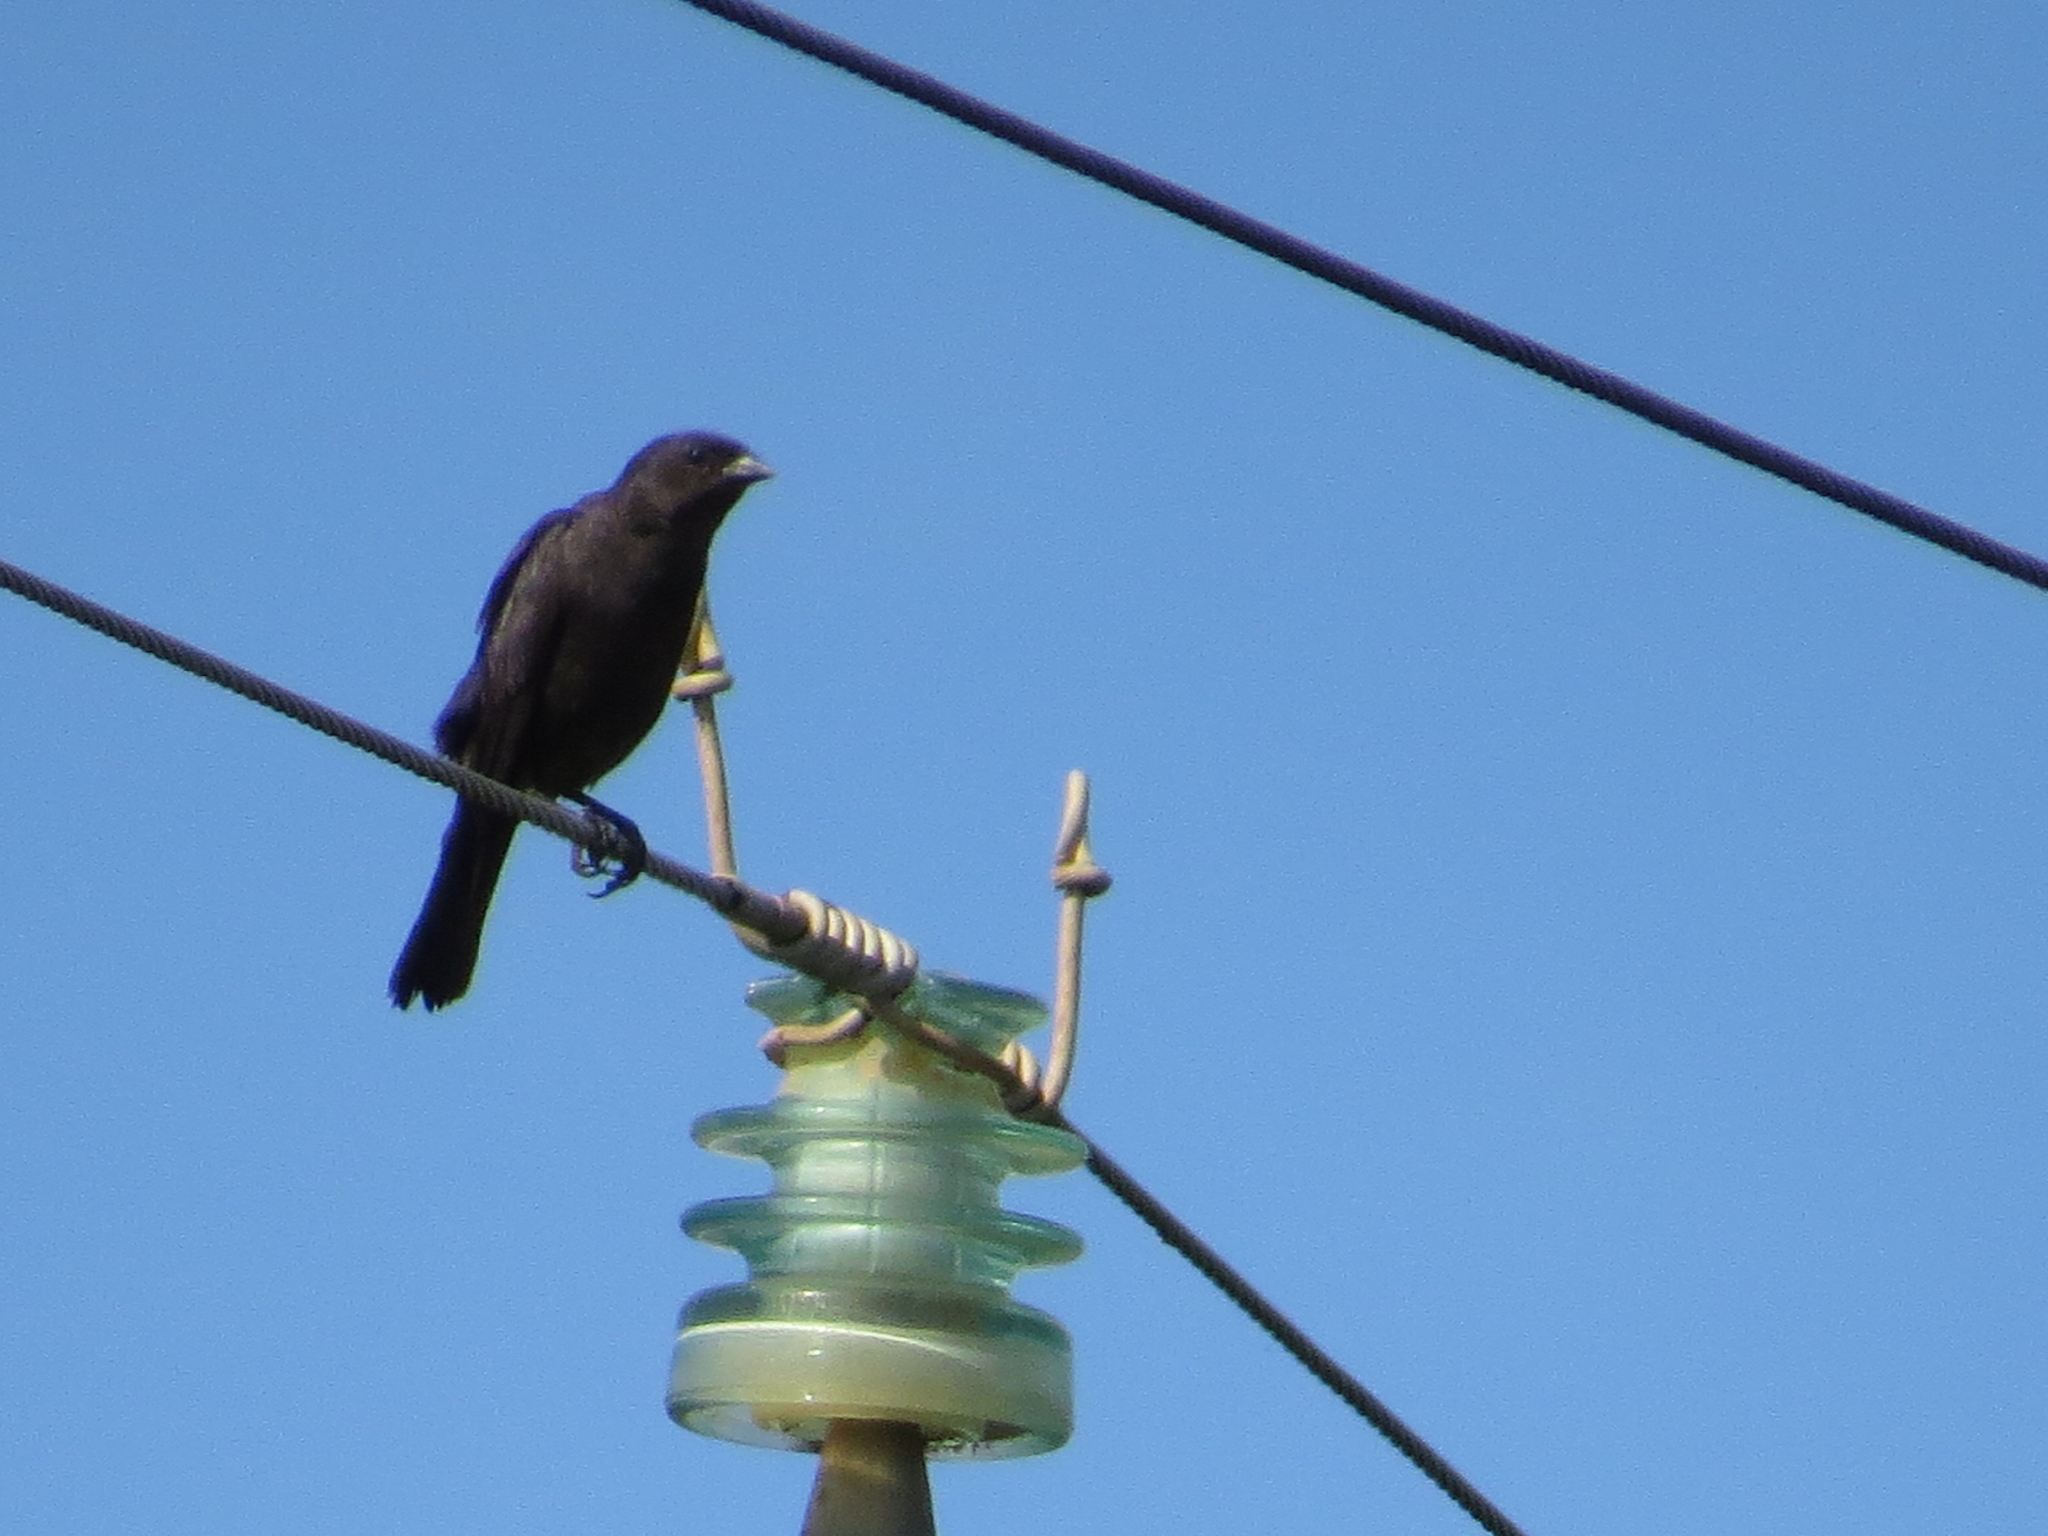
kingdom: Animalia
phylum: Chordata
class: Aves
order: Passeriformes
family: Icteridae
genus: Molothrus
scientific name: Molothrus bonariensis
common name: Shiny cowbird
